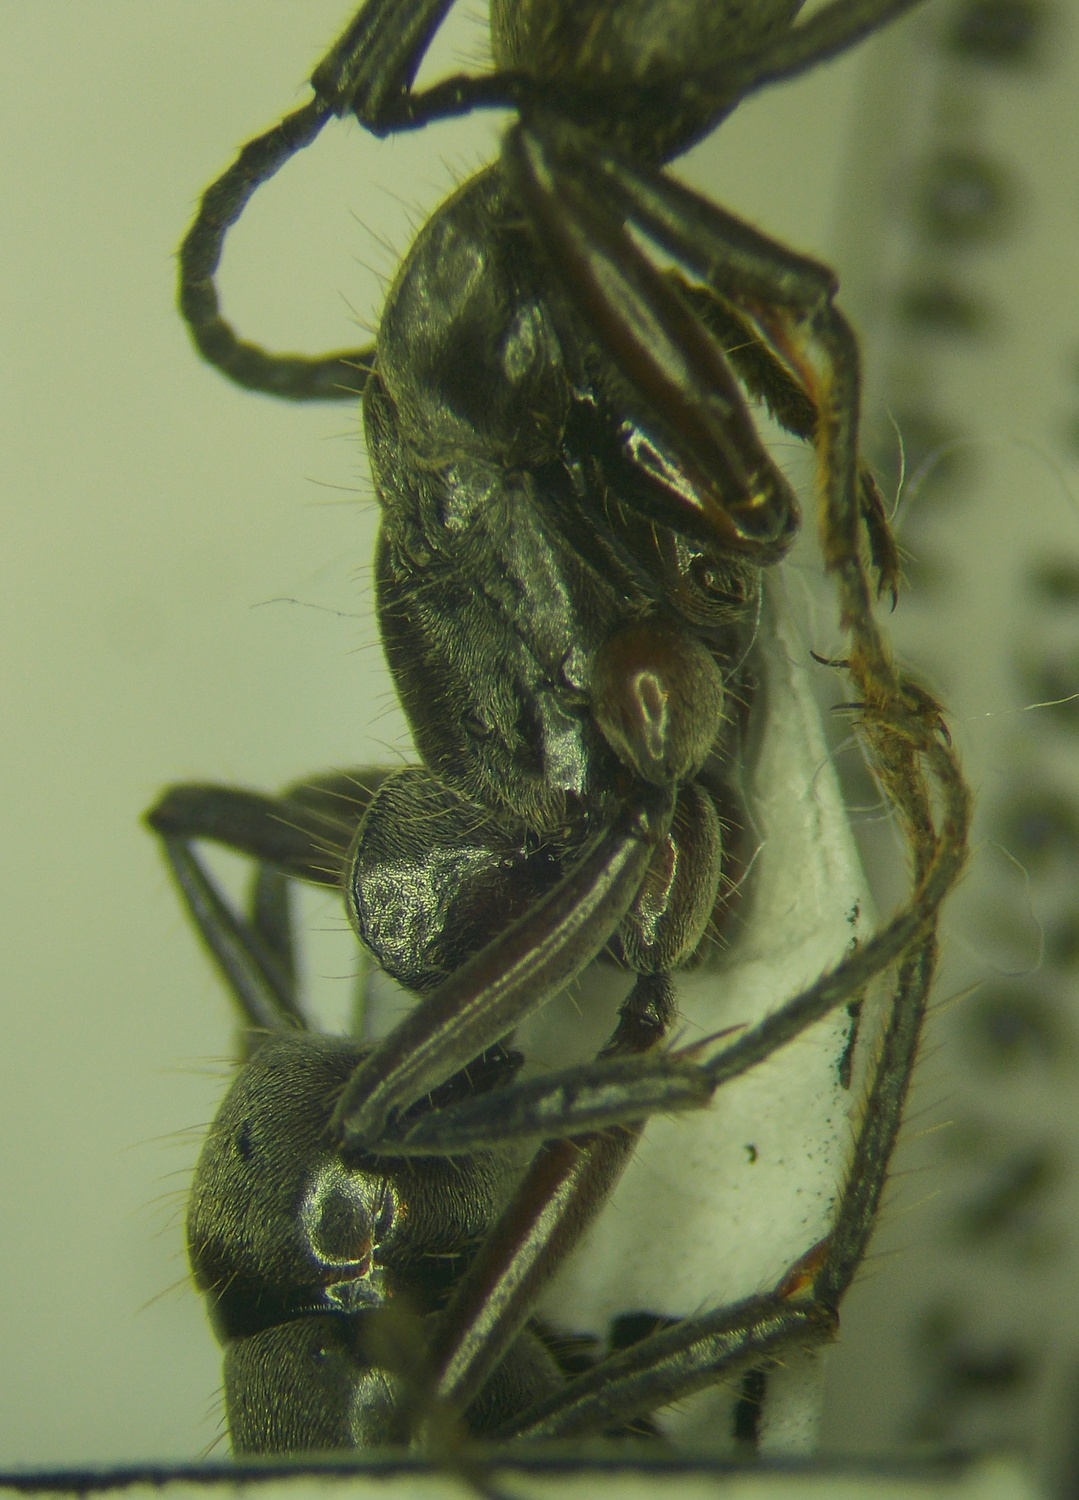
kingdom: Animalia
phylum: Arthropoda
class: Insecta
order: Hymenoptera
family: Formicidae
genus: Pachycondyla
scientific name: Pachycondyla villosa
